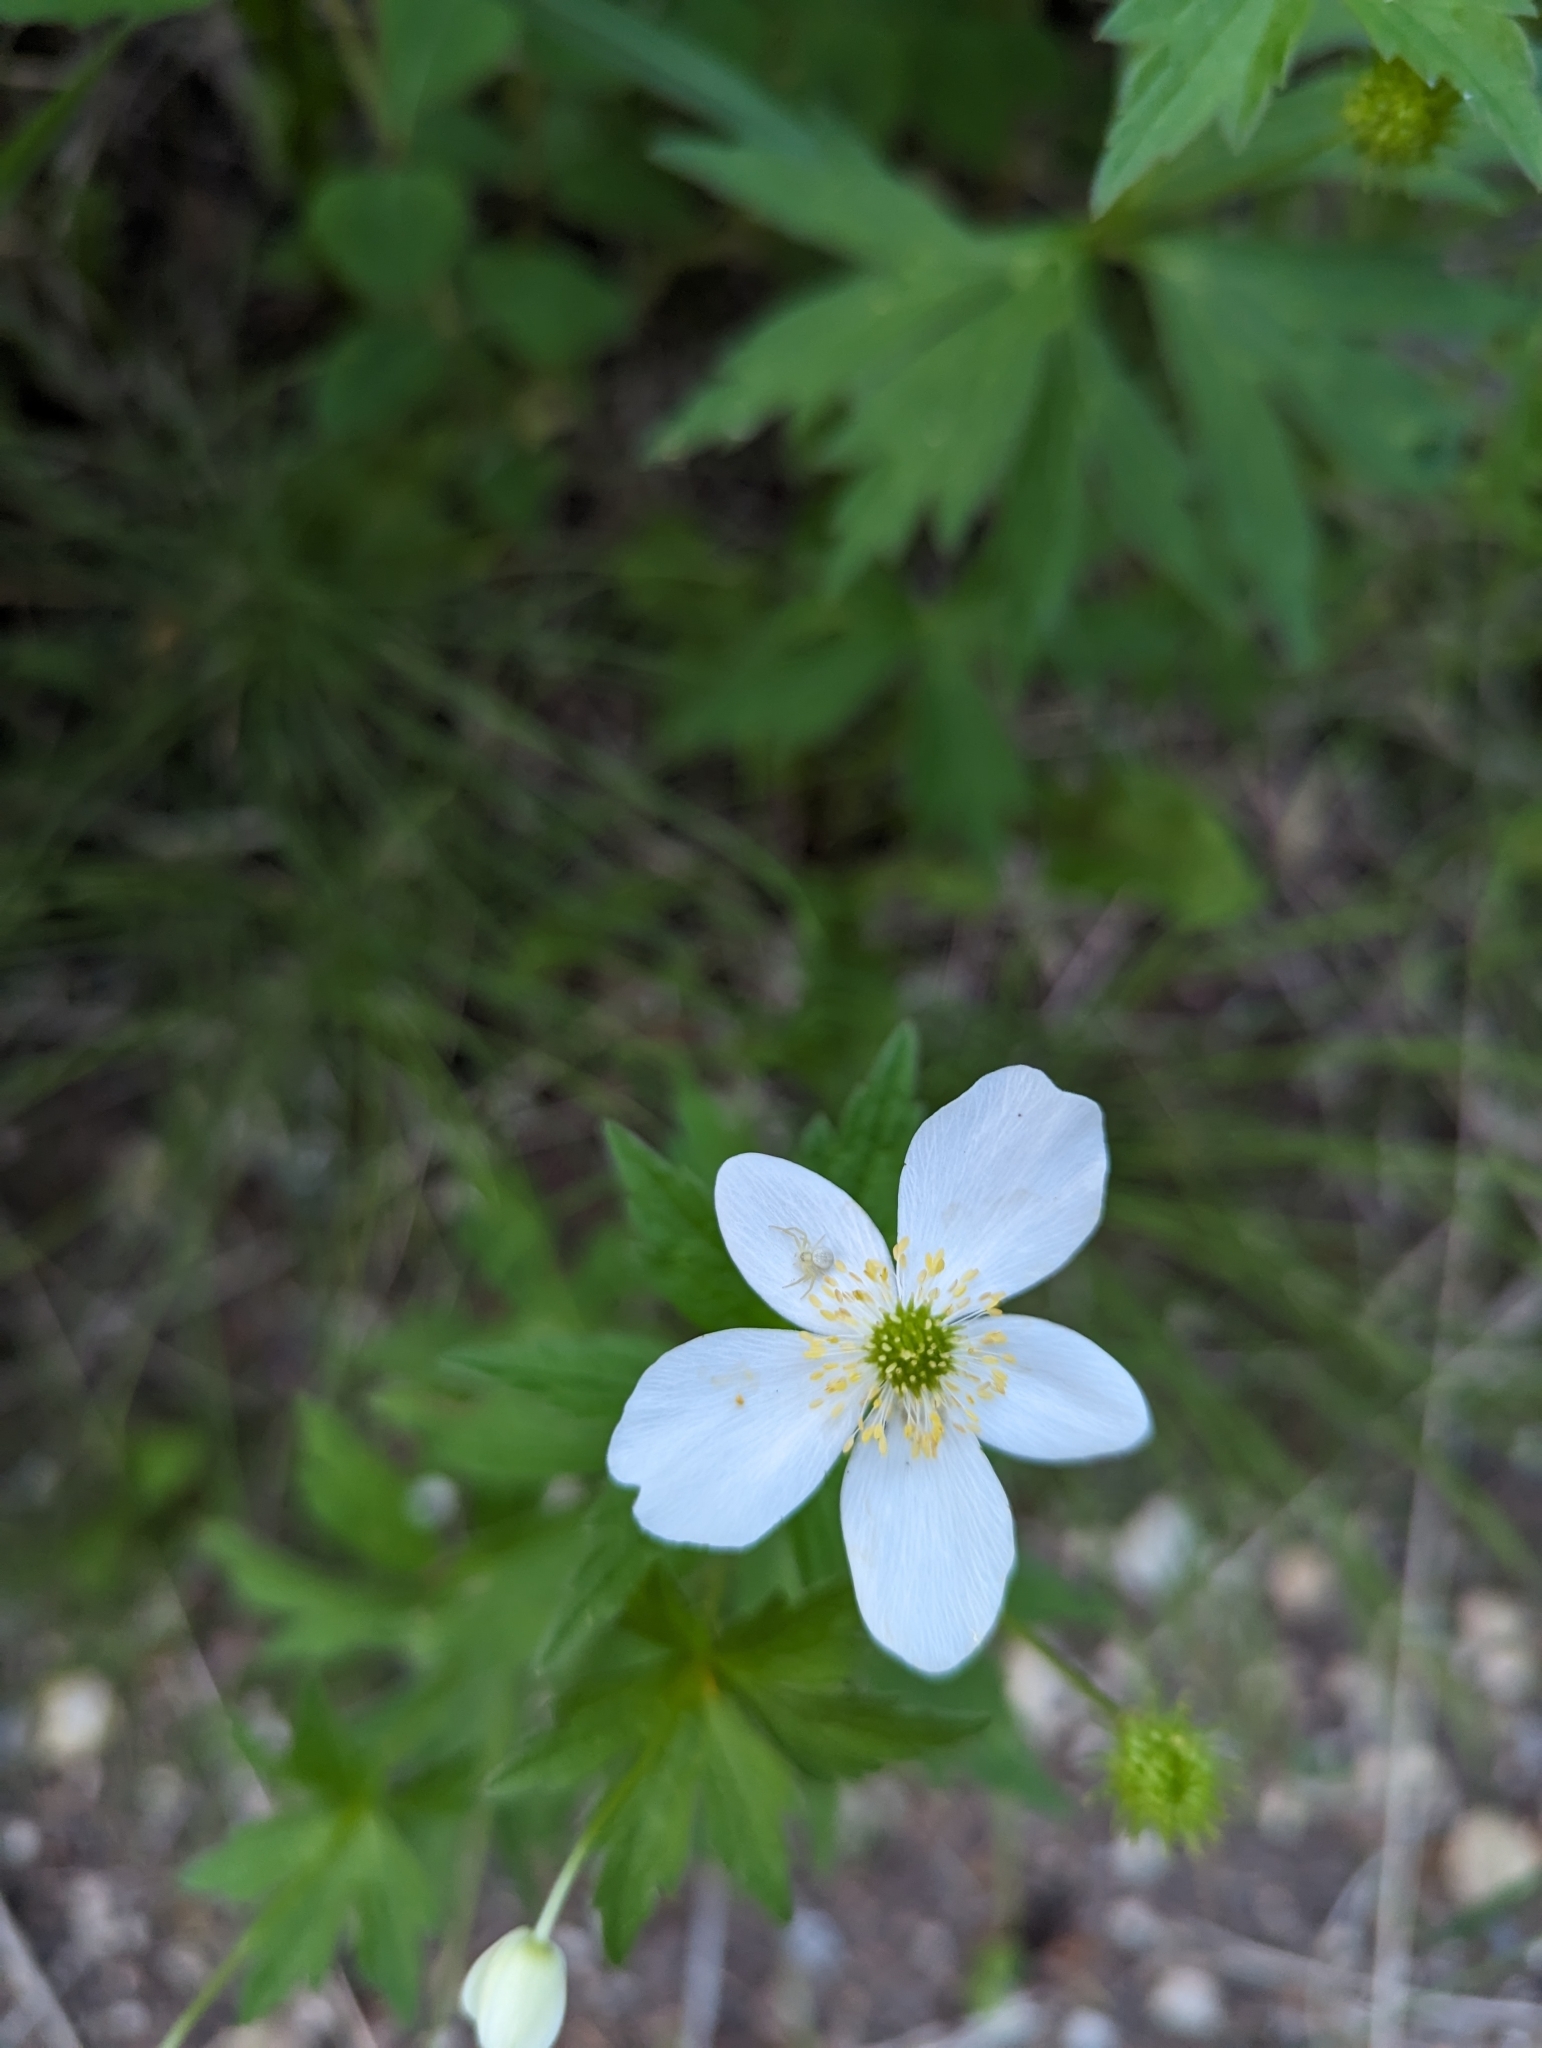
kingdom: Plantae
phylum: Tracheophyta
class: Magnoliopsida
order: Ranunculales
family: Ranunculaceae
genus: Anemonastrum
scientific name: Anemonastrum canadense
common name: Canada anemone
